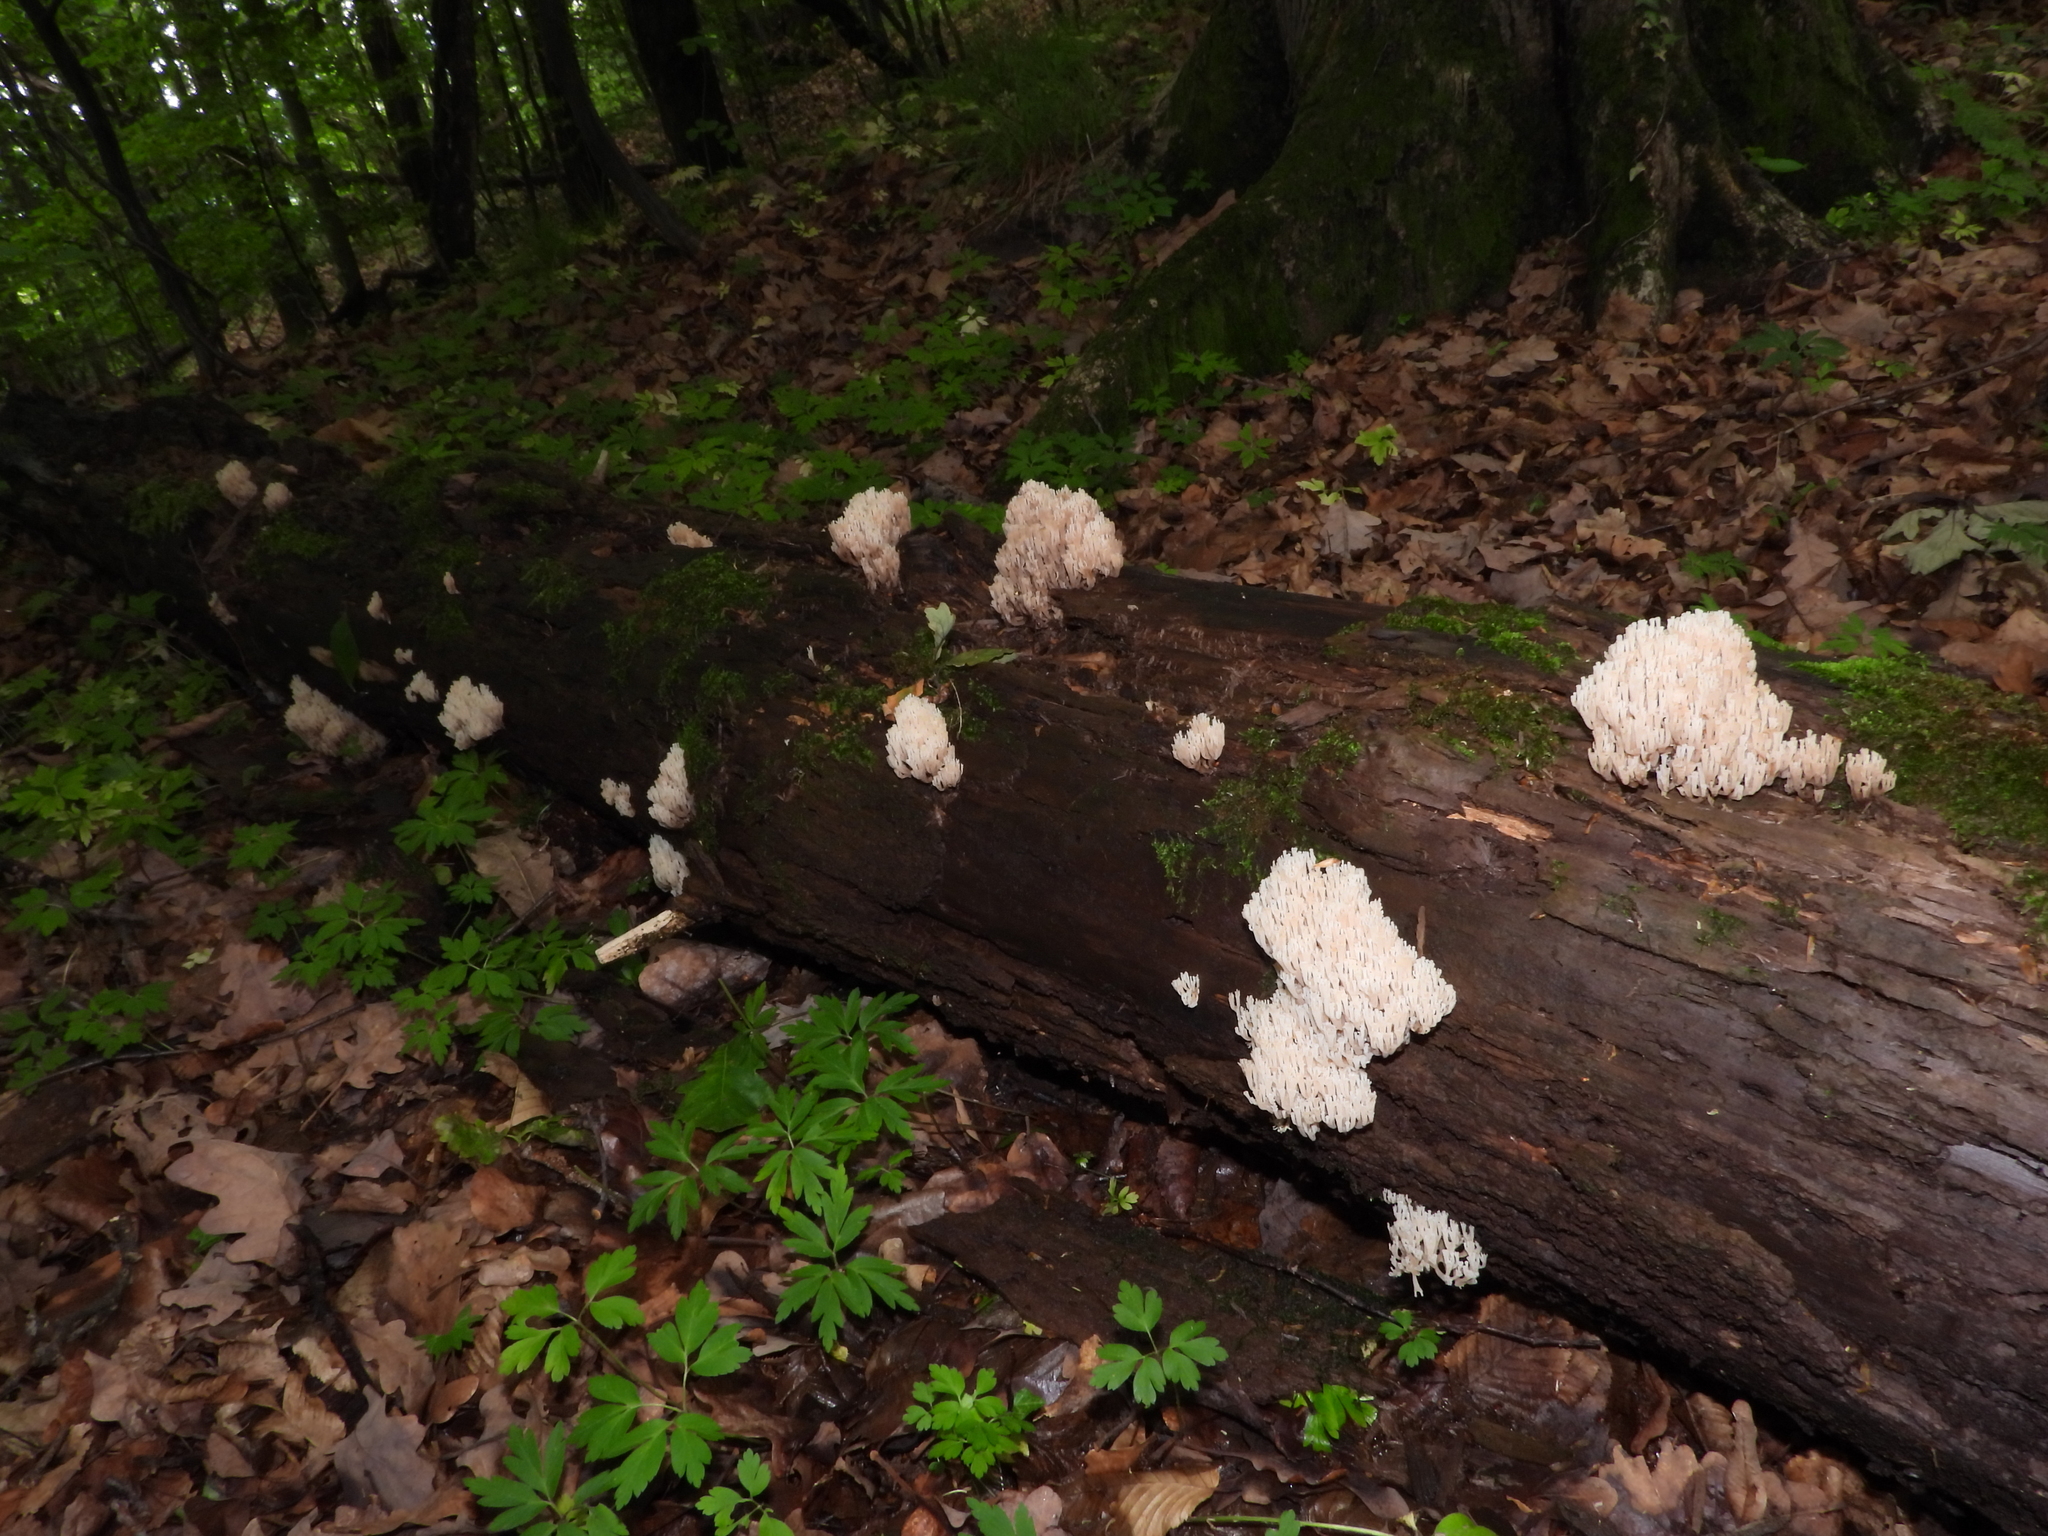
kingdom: Fungi
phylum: Basidiomycota
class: Agaricomycetes
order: Russulales
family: Auriscalpiaceae
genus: Artomyces
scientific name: Artomyces pyxidatus
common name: Crown-tipped coral fungus
